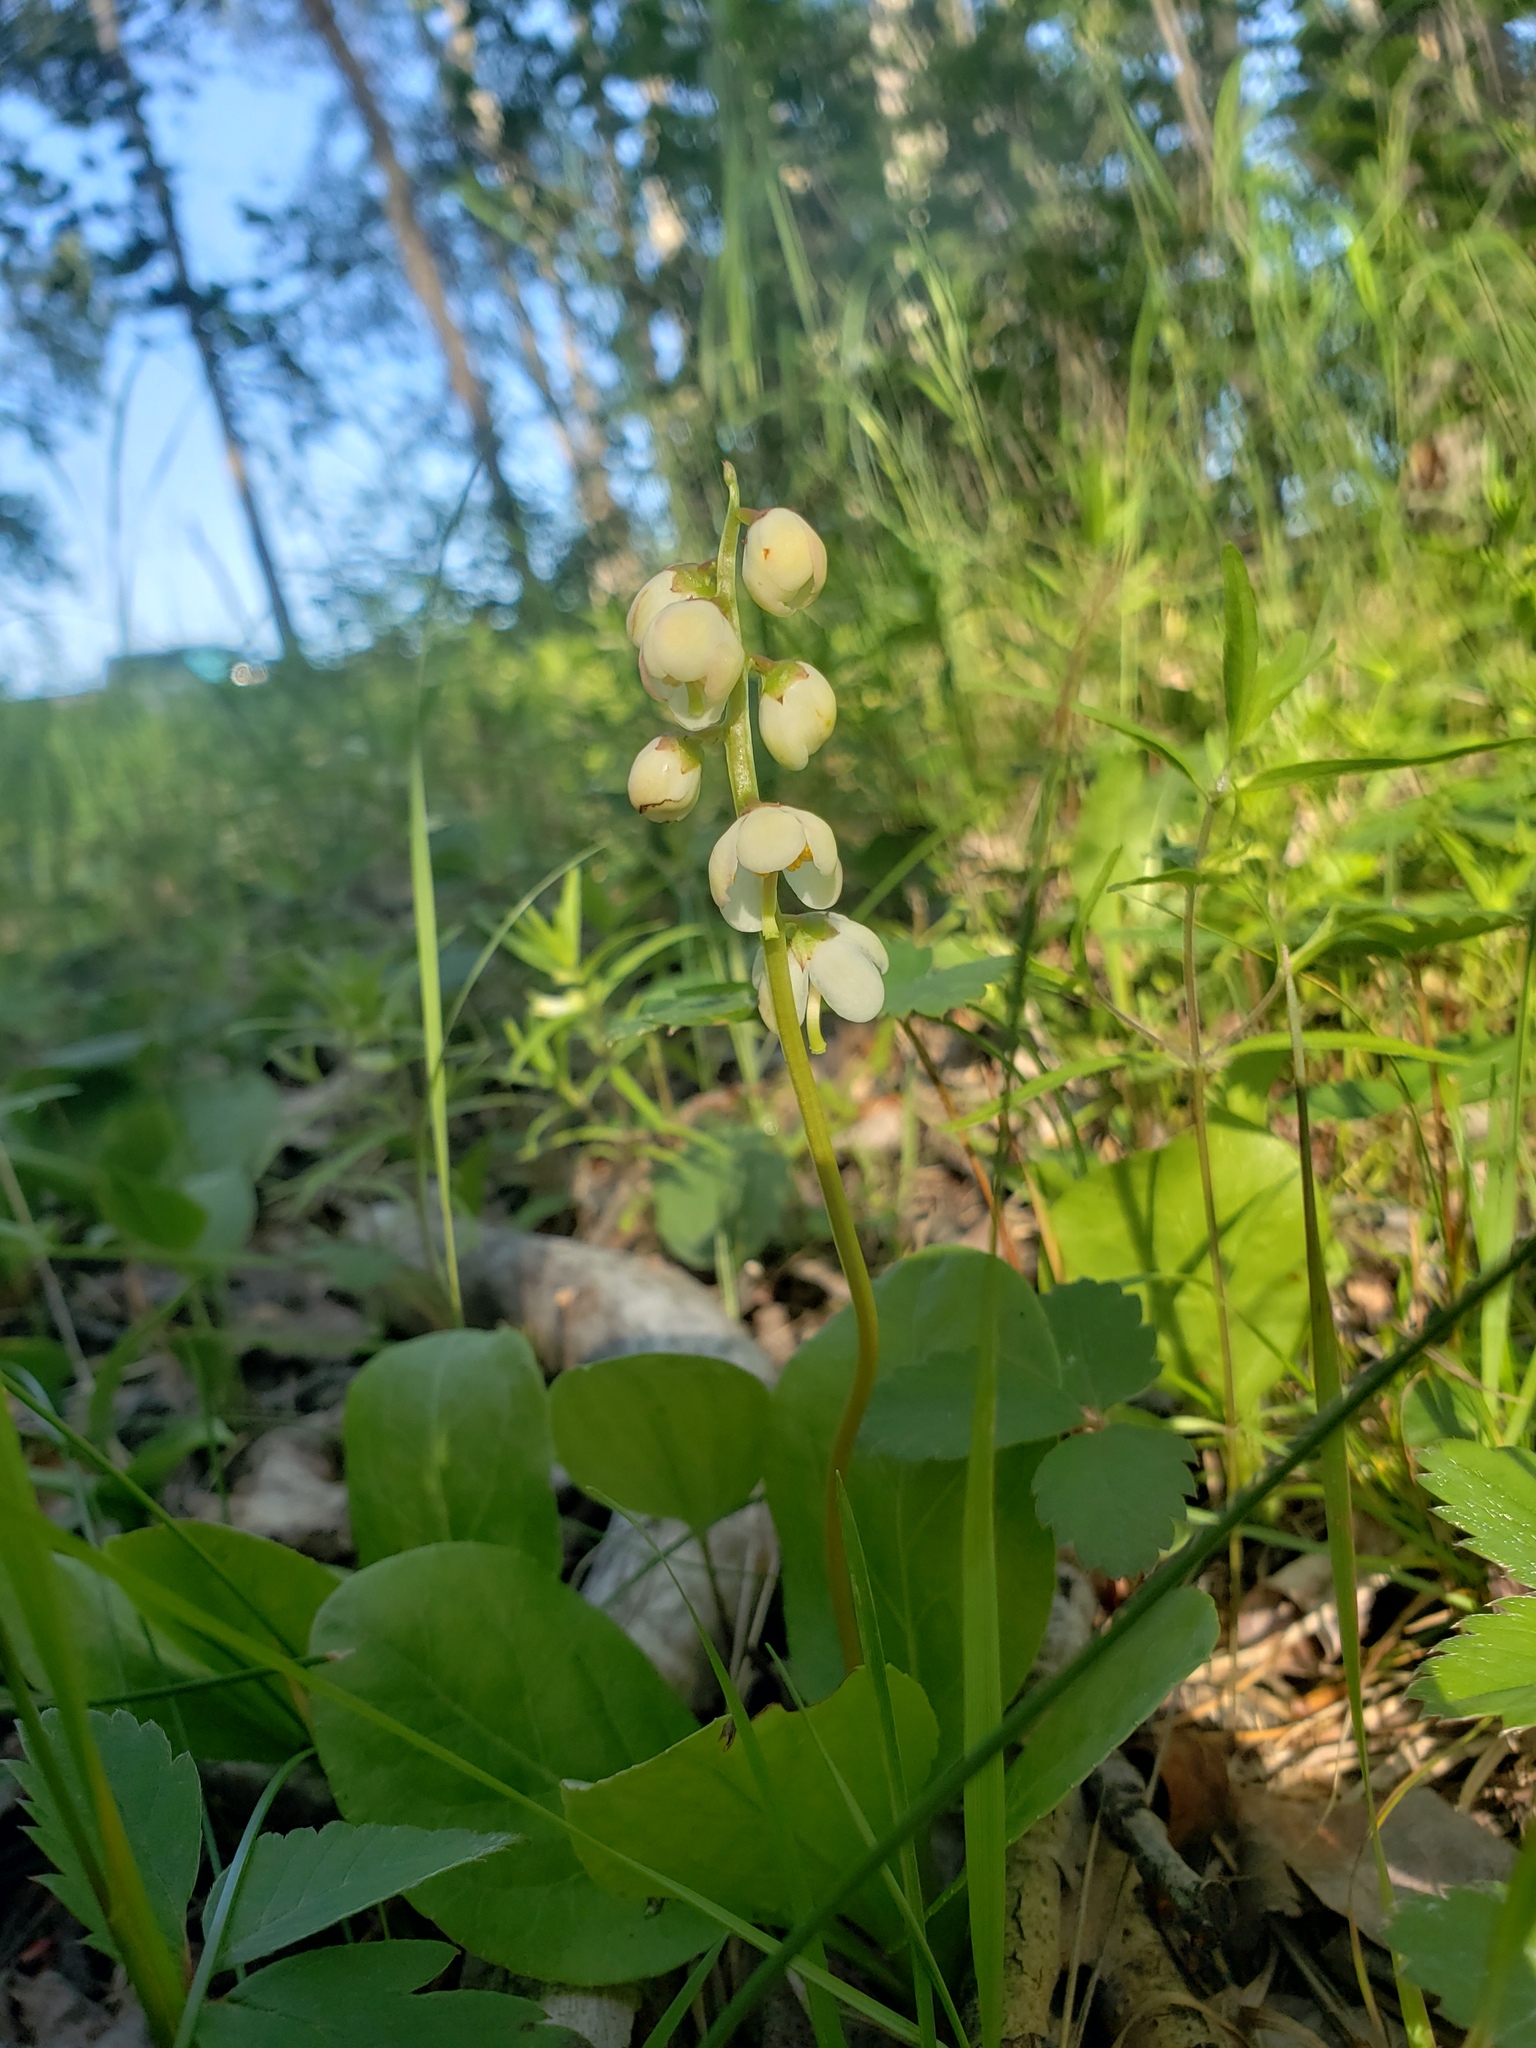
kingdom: Plantae
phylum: Tracheophyta
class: Magnoliopsida
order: Ericales
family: Ericaceae
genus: Pyrola
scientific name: Pyrola elliptica
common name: Shinleaf
